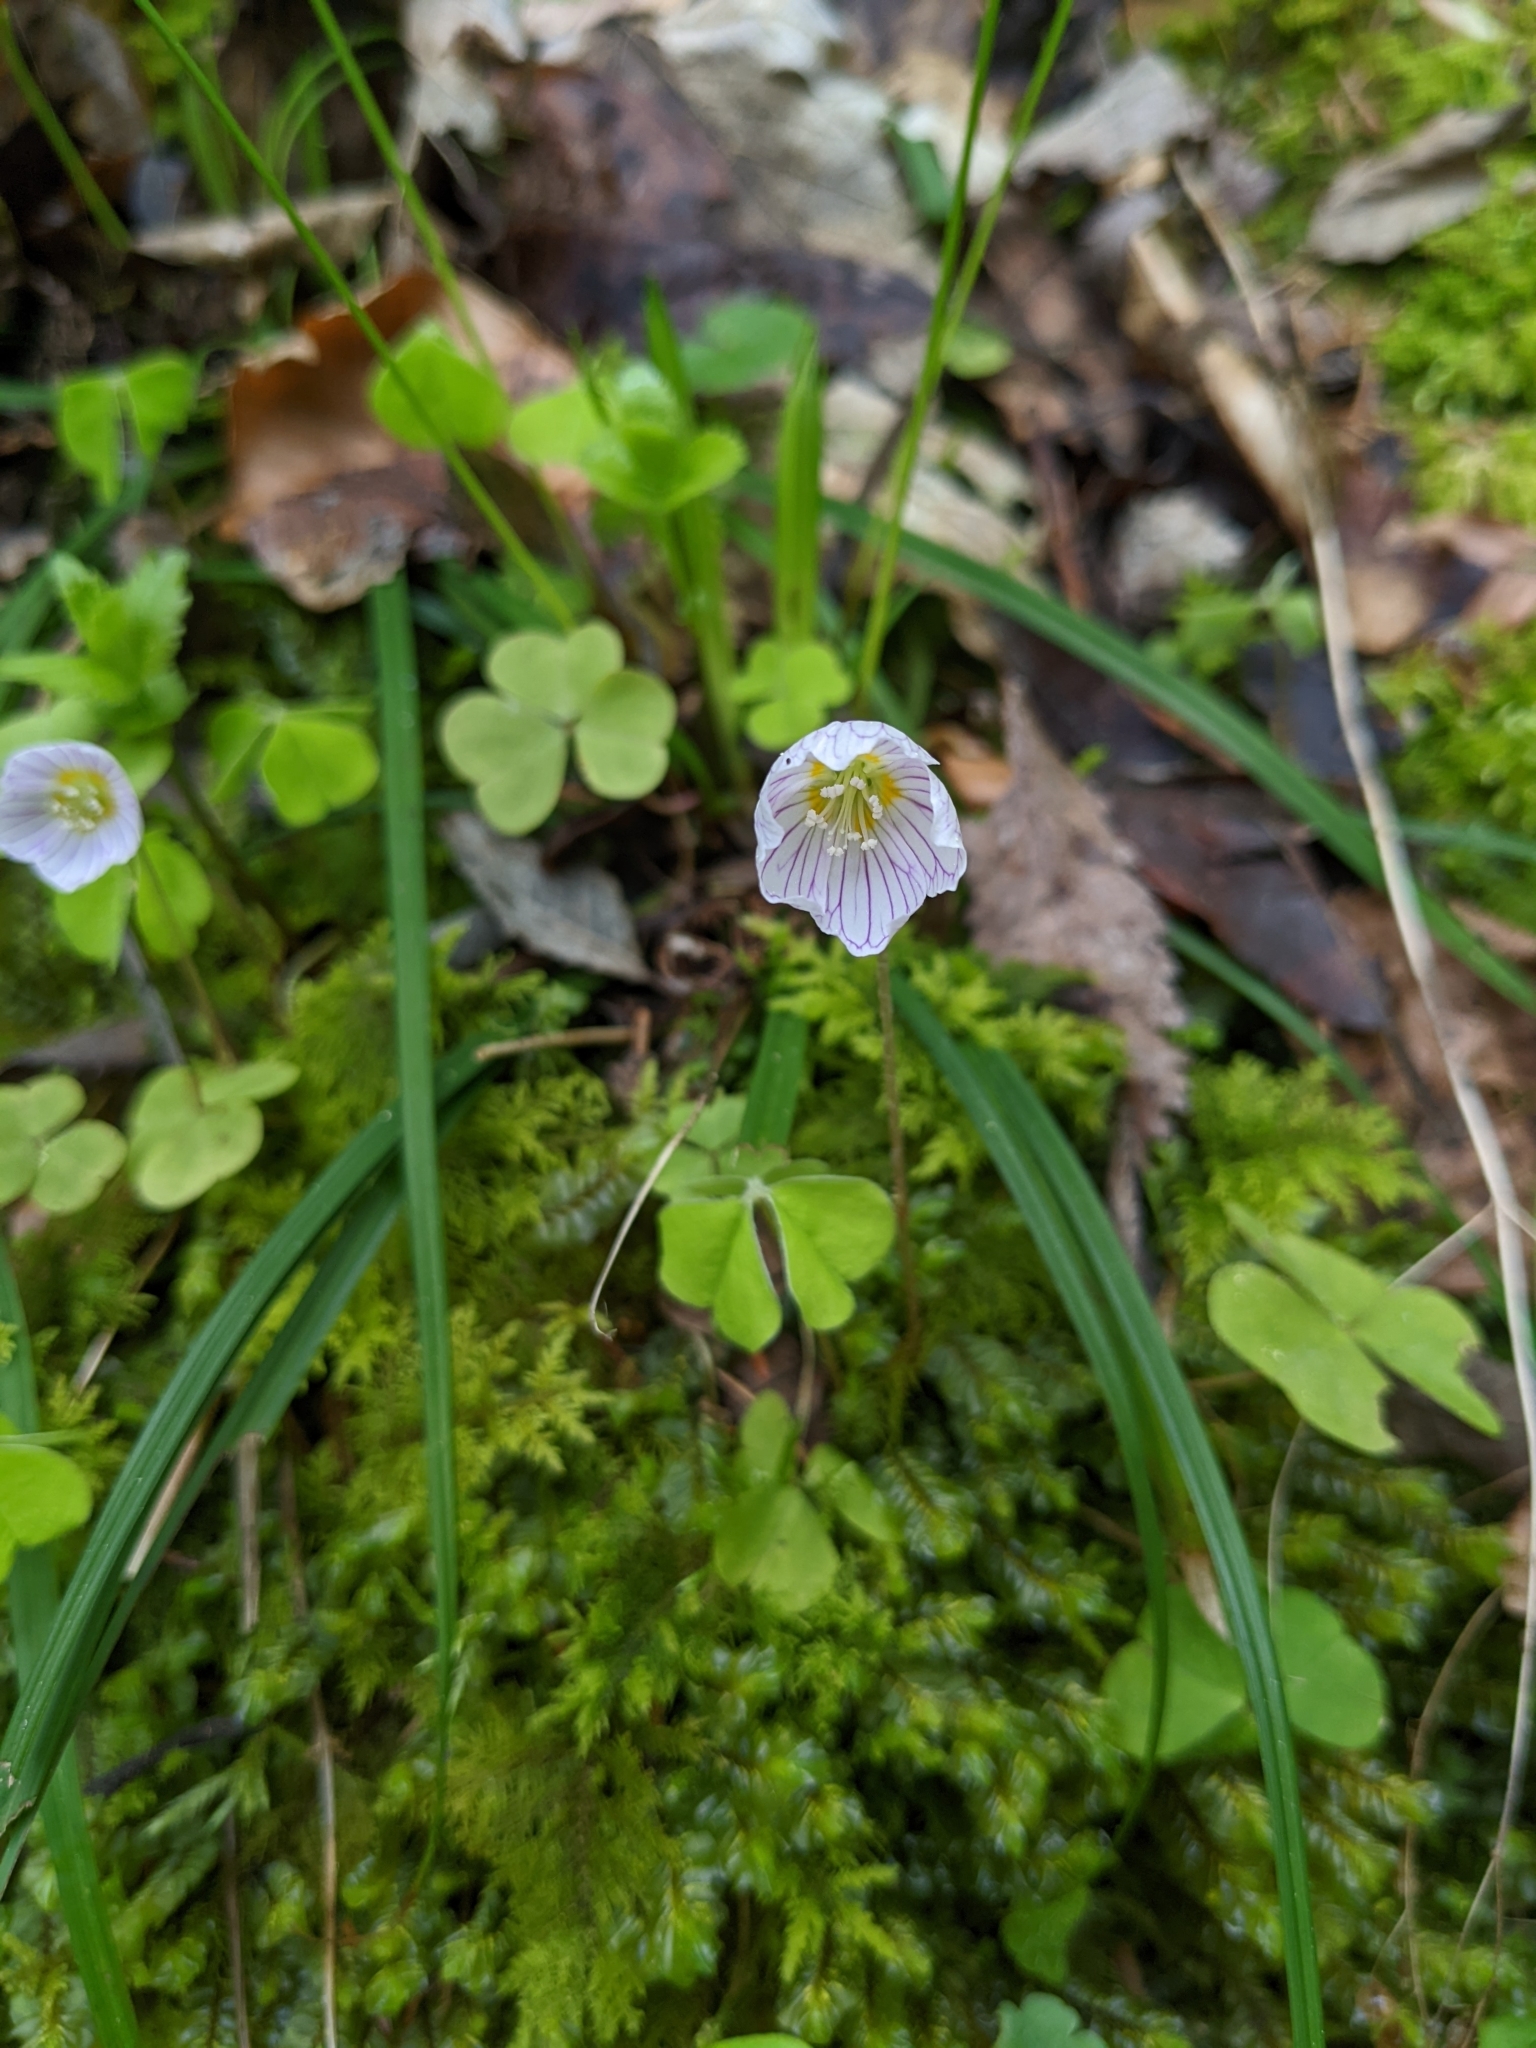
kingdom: Plantae
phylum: Tracheophyta
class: Magnoliopsida
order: Oxalidales
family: Oxalidaceae
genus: Oxalis
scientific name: Oxalis acetosella
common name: Wood-sorrel
